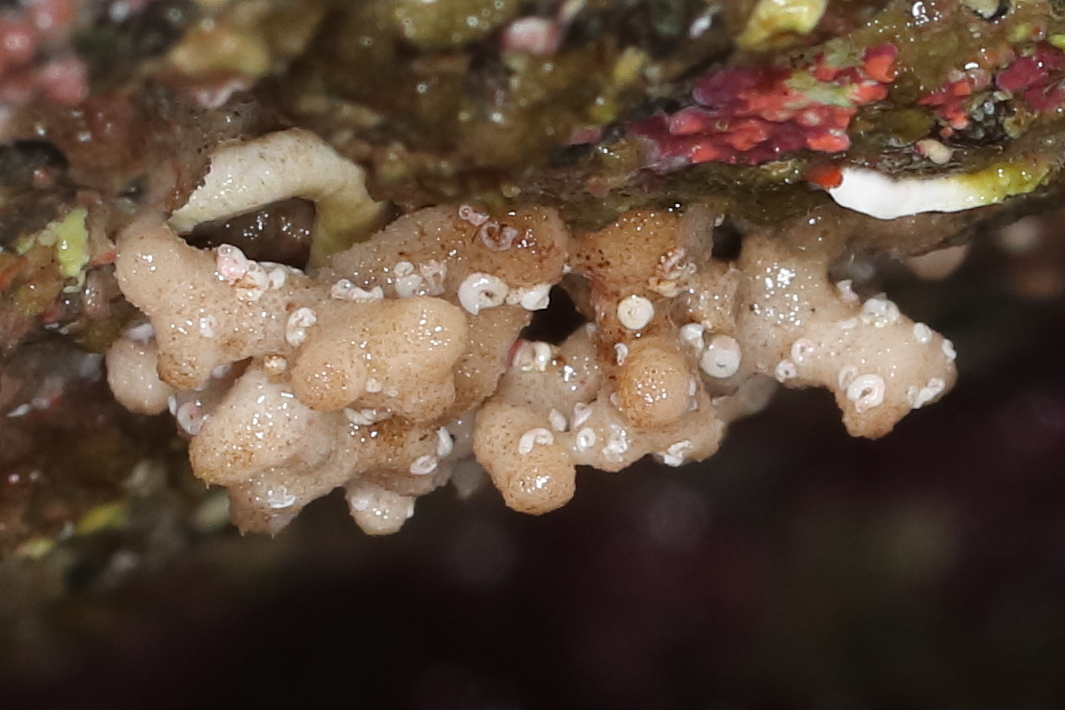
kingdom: Animalia
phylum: Bryozoa
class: Stenolaemata
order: Cyclostomatida
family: Heteroporidae
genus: Heteropora
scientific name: Heteropora pacifica
